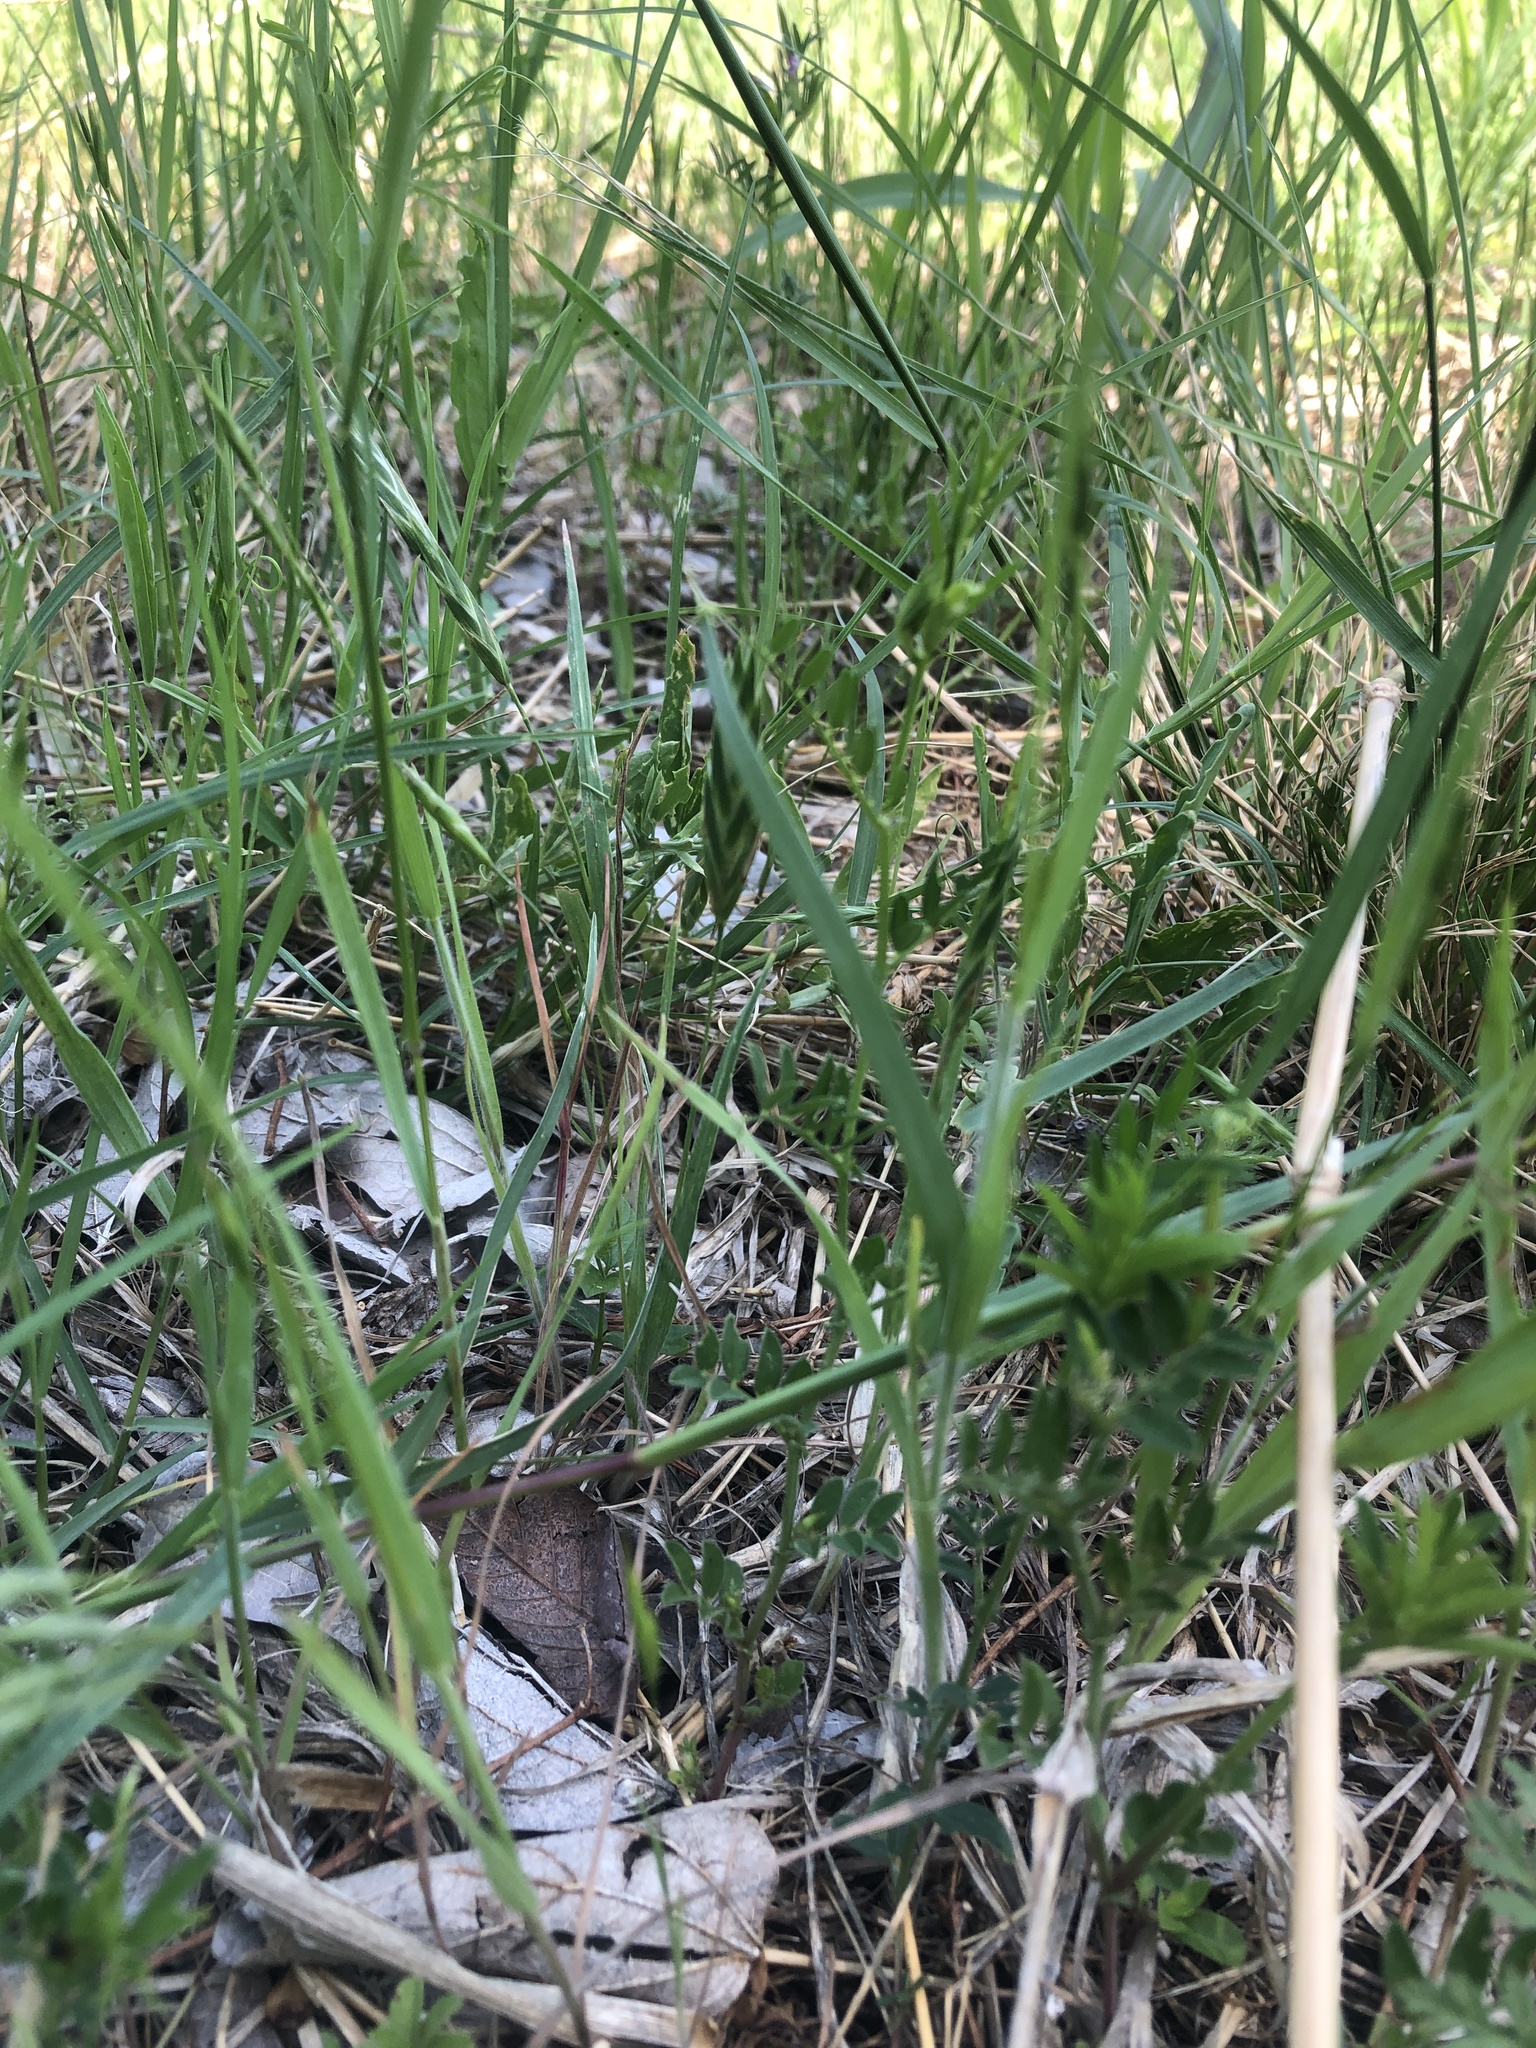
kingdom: Plantae
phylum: Tracheophyta
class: Liliopsida
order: Poales
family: Poaceae
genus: Bromus
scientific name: Bromus catharticus
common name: Rescuegrass
